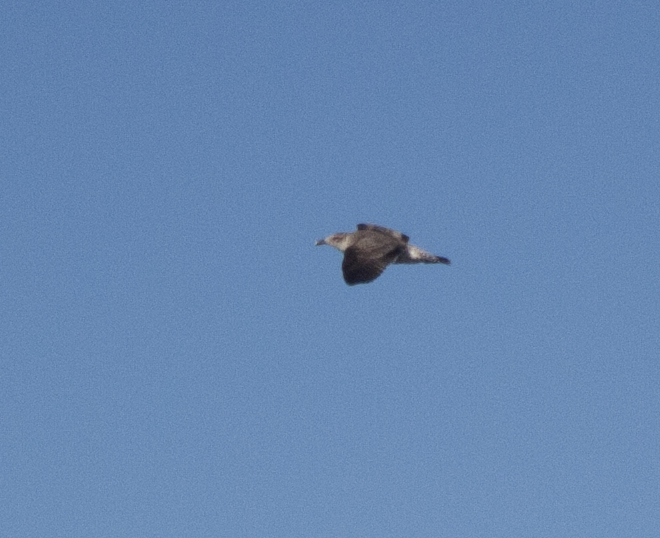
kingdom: Animalia
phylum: Chordata
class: Aves
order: Charadriiformes
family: Laridae
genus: Larus
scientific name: Larus pacificus
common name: Pacific gull
